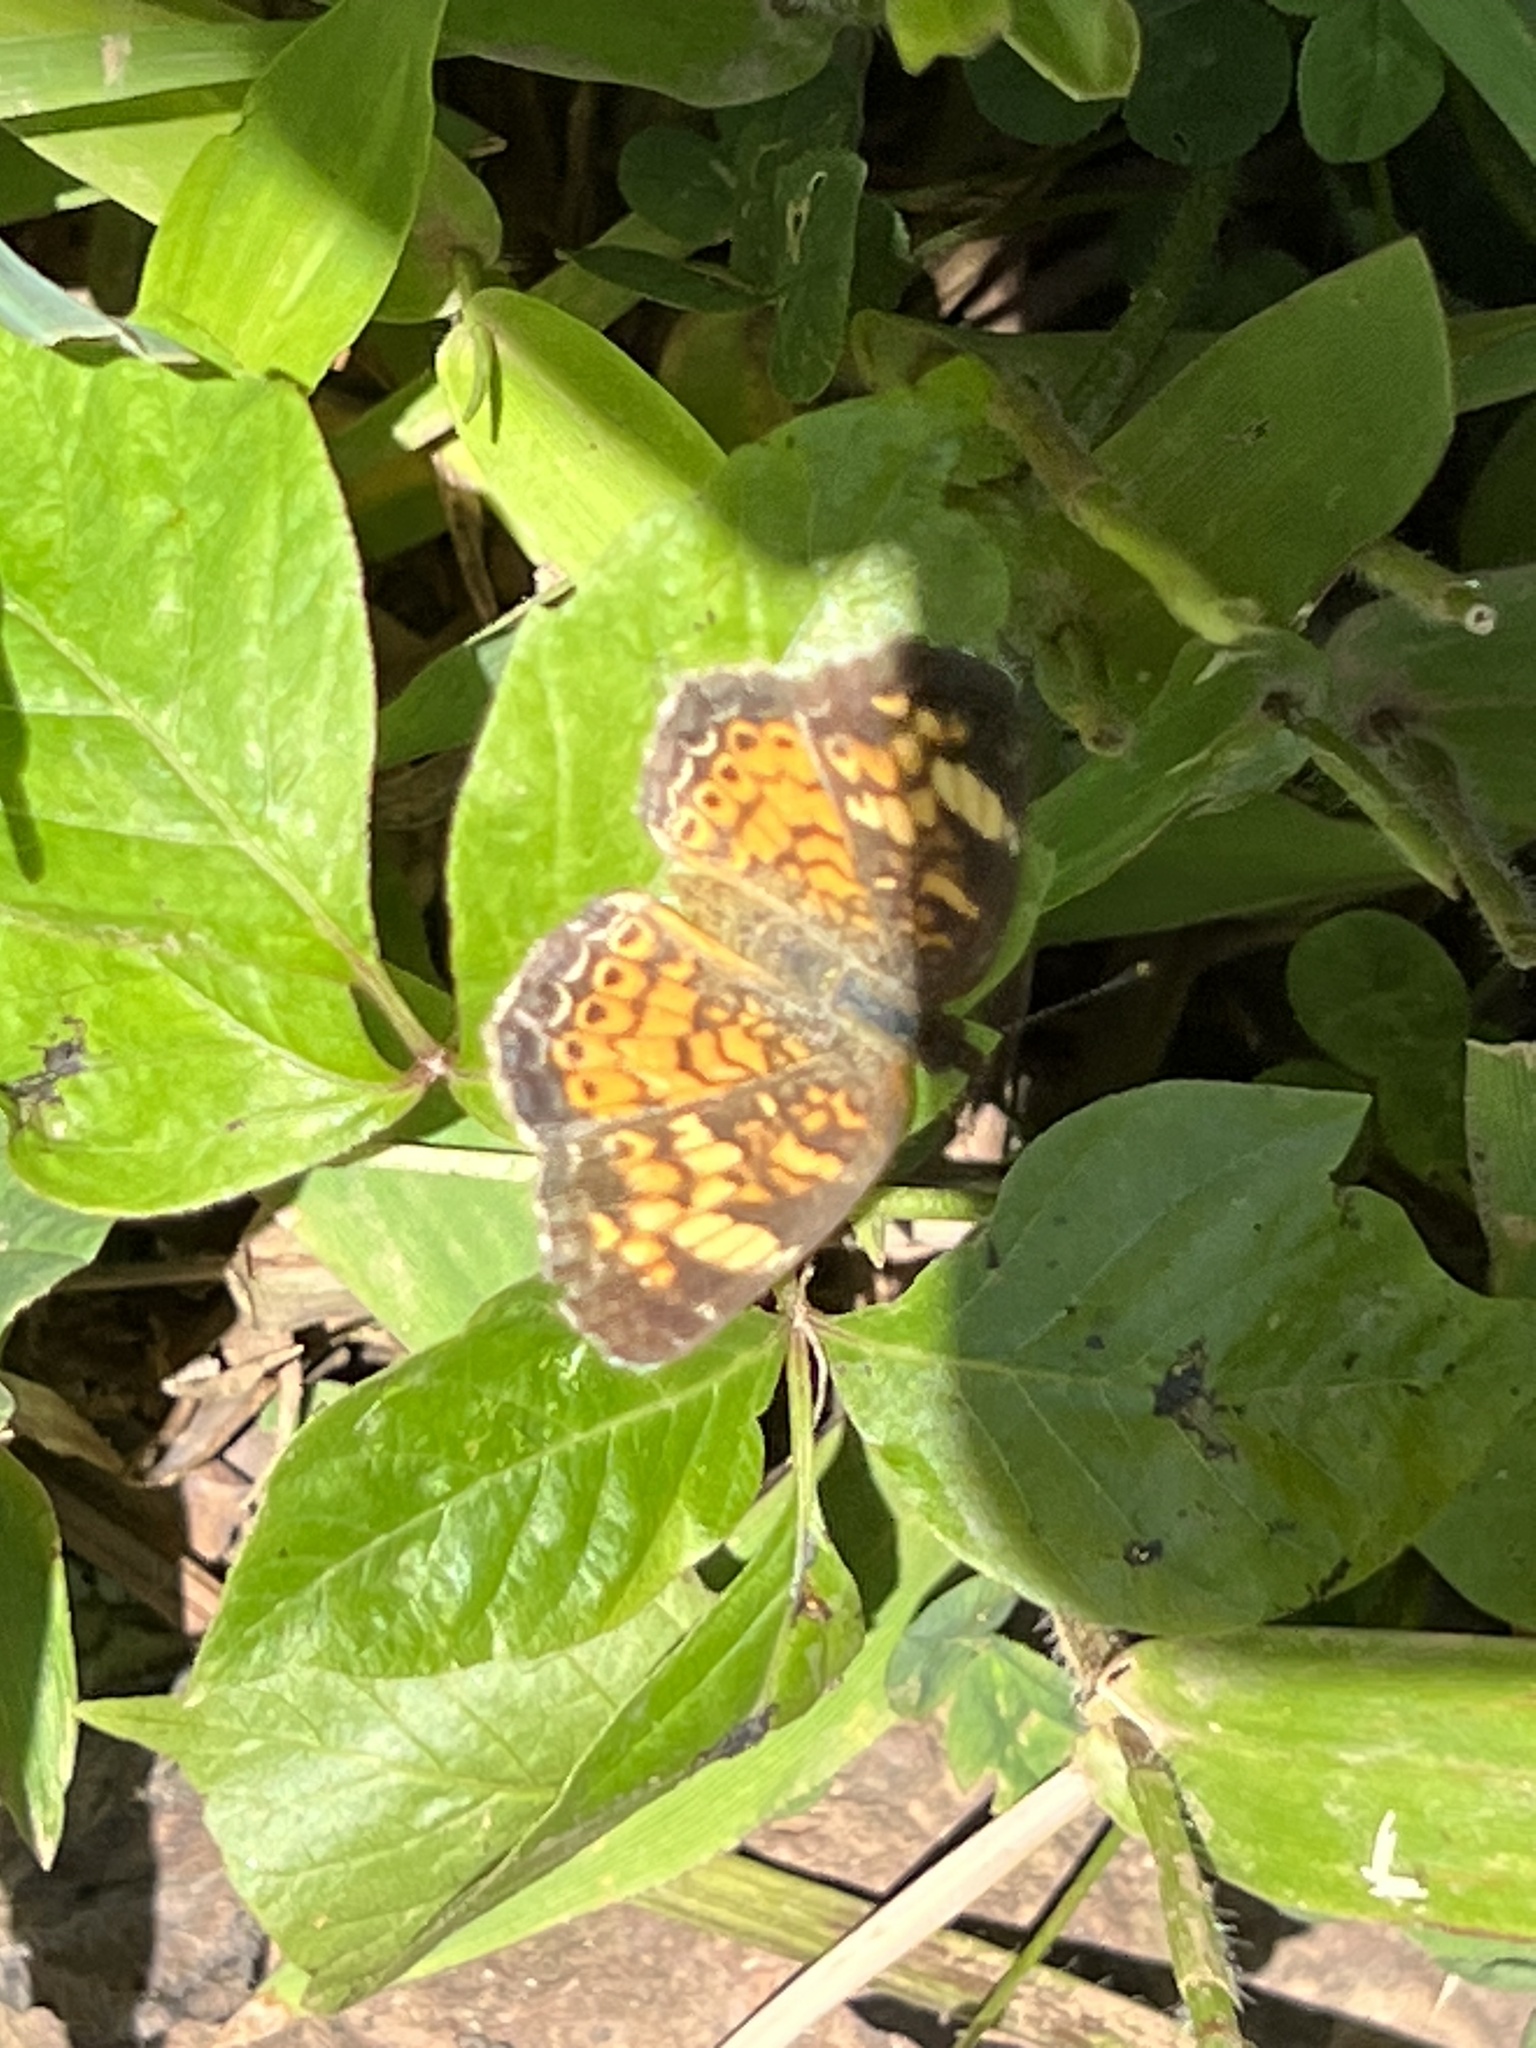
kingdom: Animalia
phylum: Arthropoda
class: Insecta
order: Lepidoptera
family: Nymphalidae
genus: Phyciodes
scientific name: Phyciodes tharos
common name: Pearl crescent
